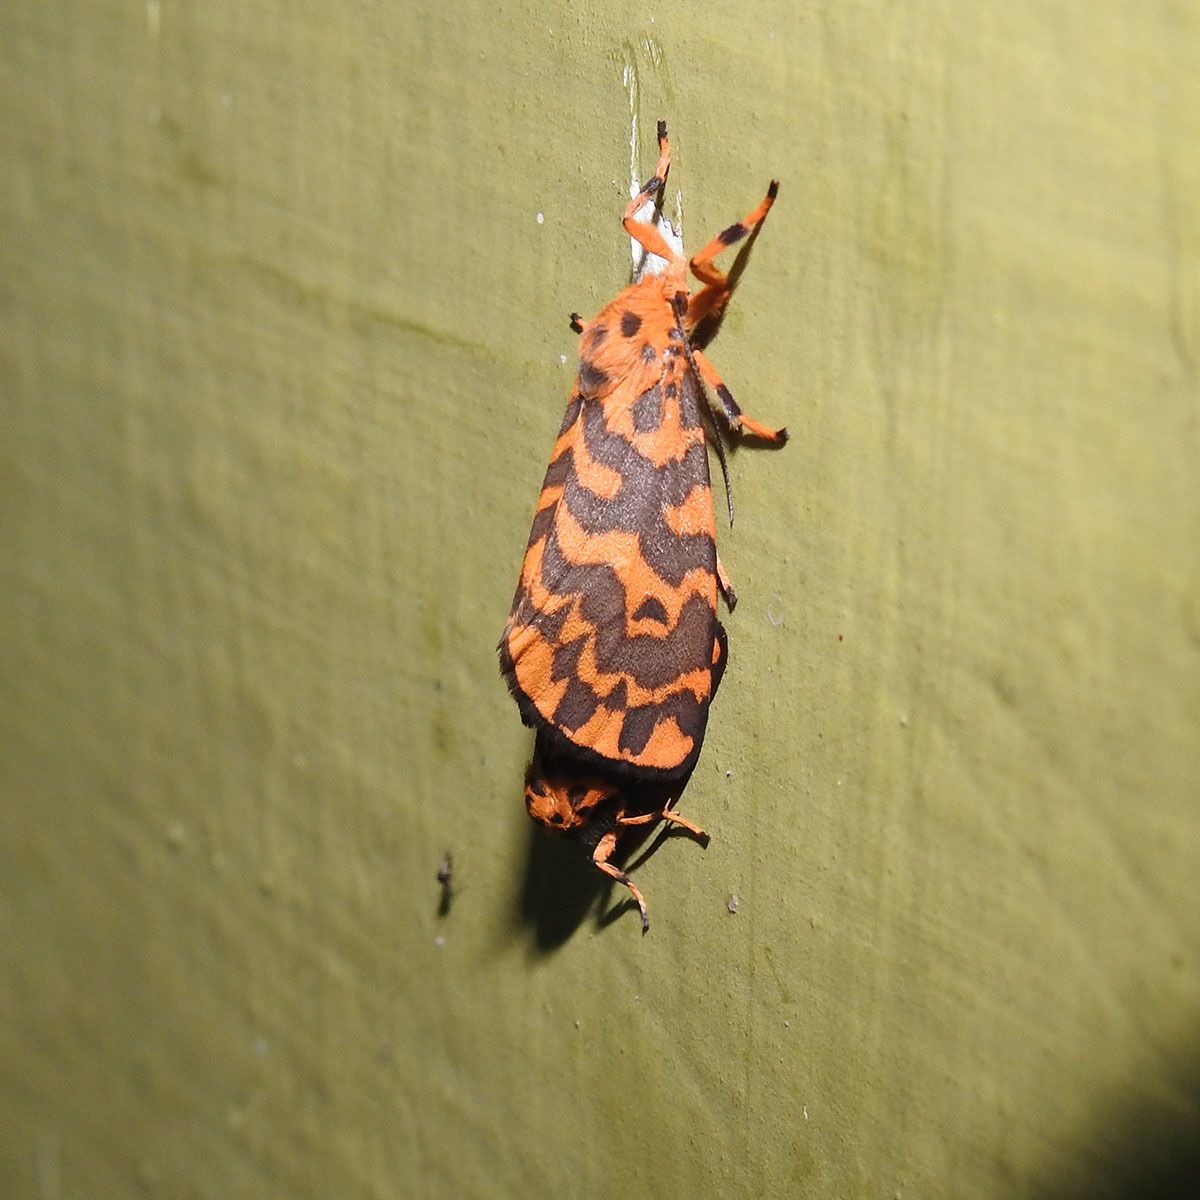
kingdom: Animalia
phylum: Arthropoda
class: Insecta
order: Lepidoptera
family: Erebidae
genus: Nepita
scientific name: Nepita conferta
